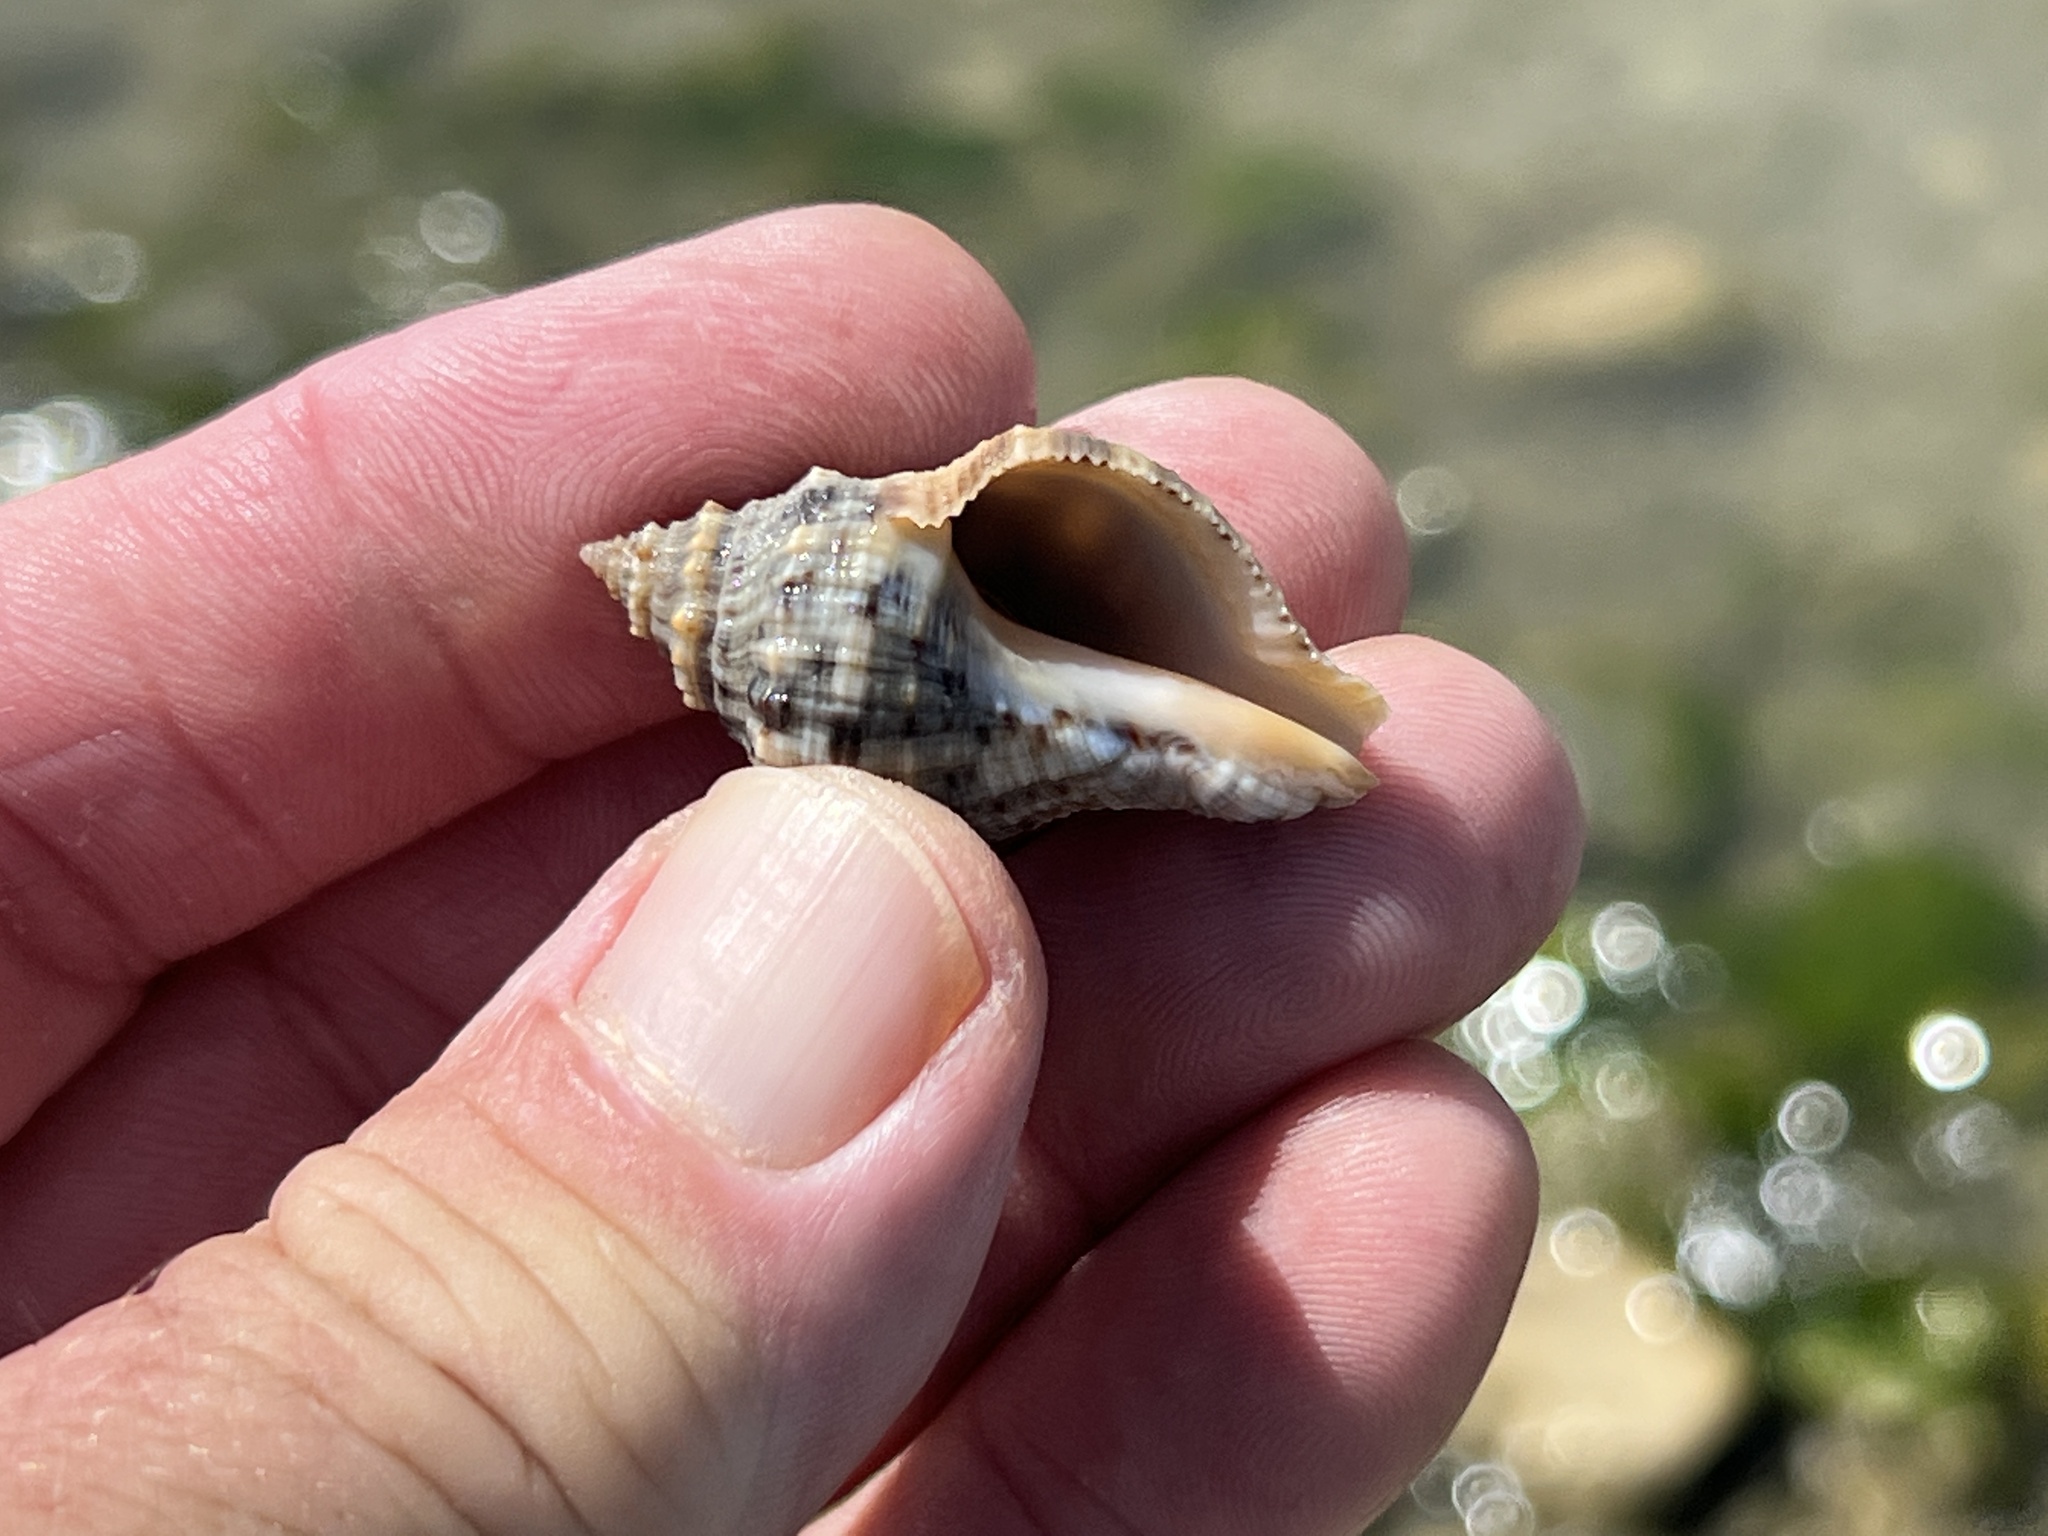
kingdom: Animalia
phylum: Mollusca
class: Gastropoda
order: Neogastropoda
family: Muricidae
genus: Stramonita
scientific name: Stramonita floridana
